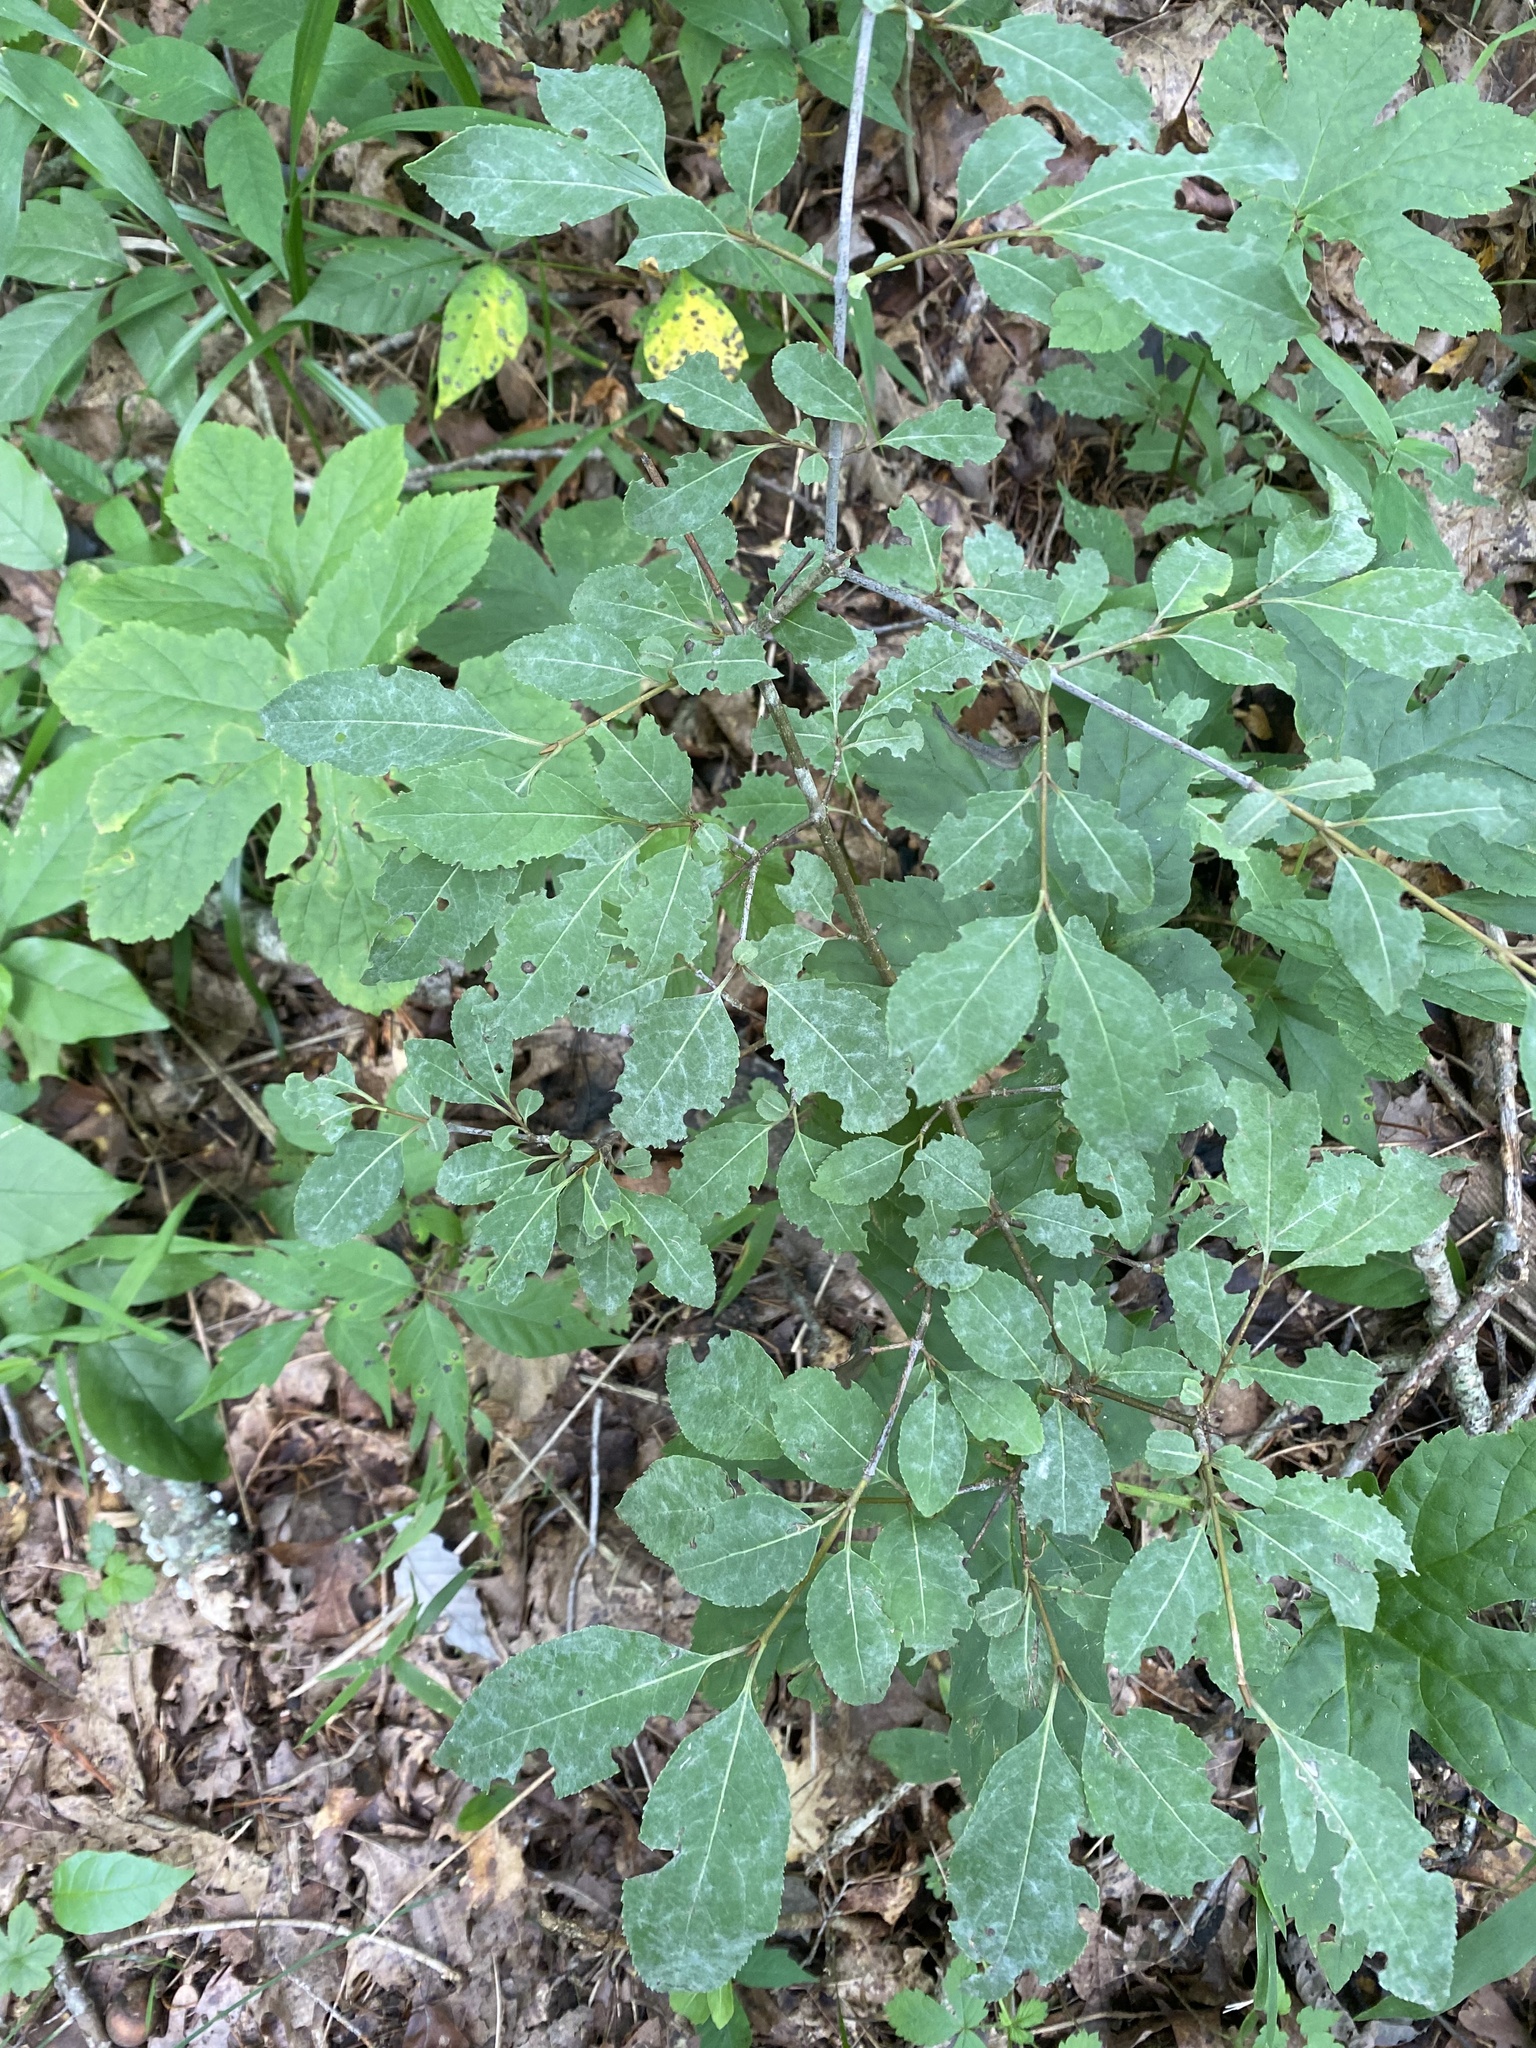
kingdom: Plantae
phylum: Tracheophyta
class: Magnoliopsida
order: Dipsacales
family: Viburnaceae
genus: Viburnum
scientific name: Viburnum prunifolium
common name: Black haw
